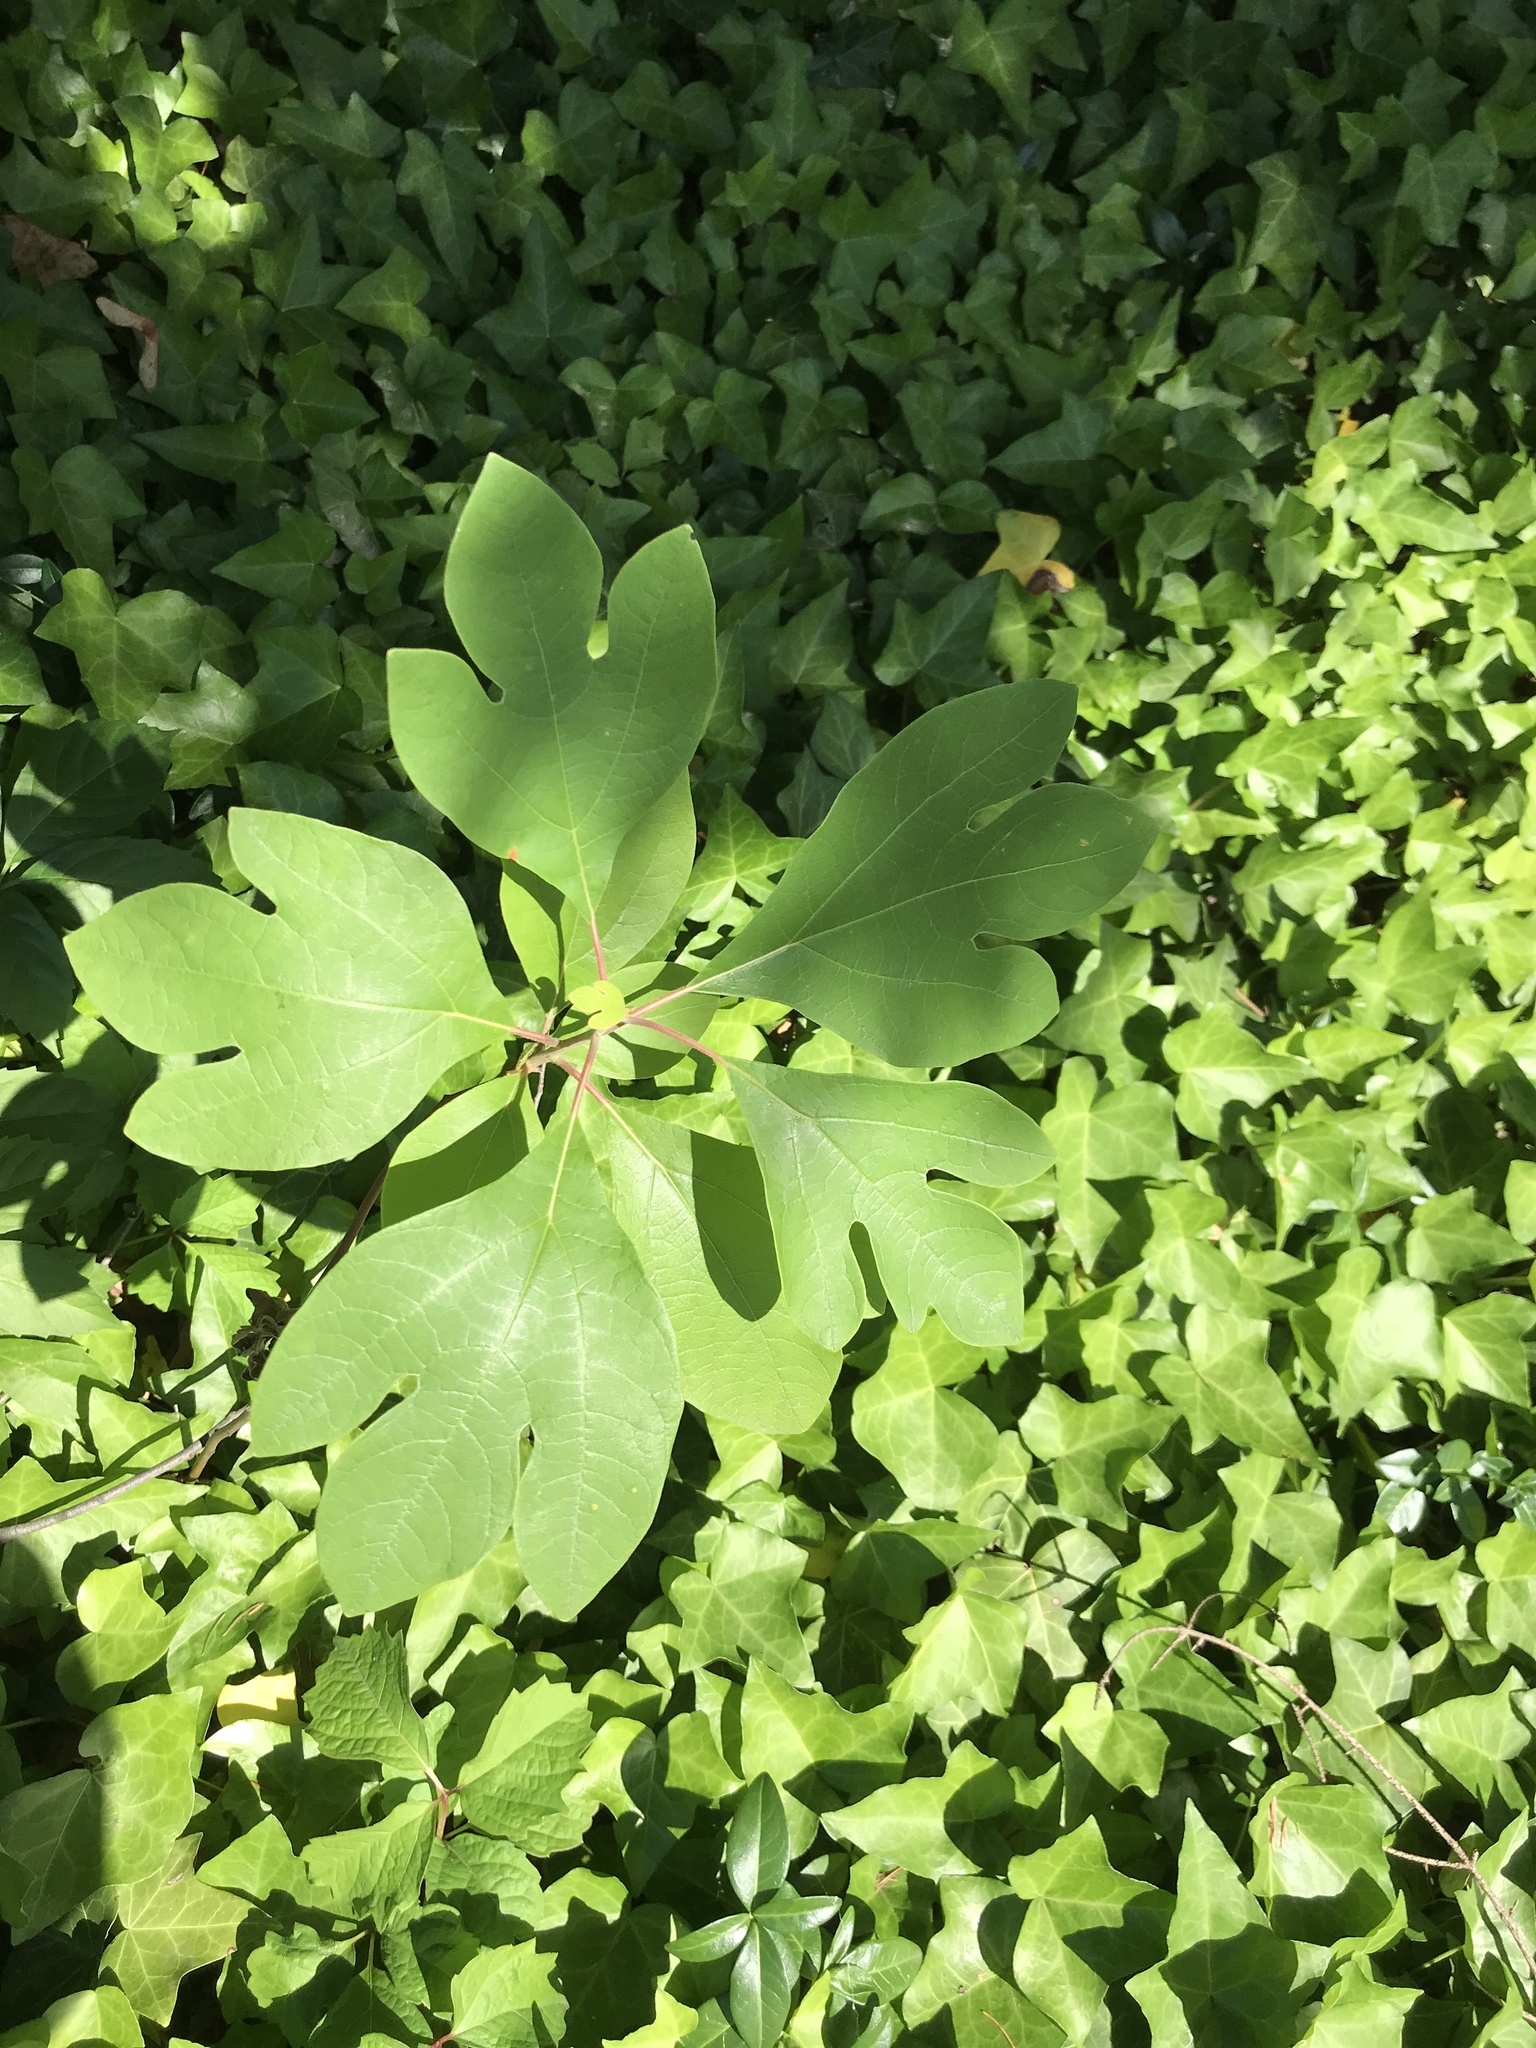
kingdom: Plantae
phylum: Tracheophyta
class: Magnoliopsida
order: Laurales
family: Lauraceae
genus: Sassafras
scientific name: Sassafras albidum
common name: Sassafras
